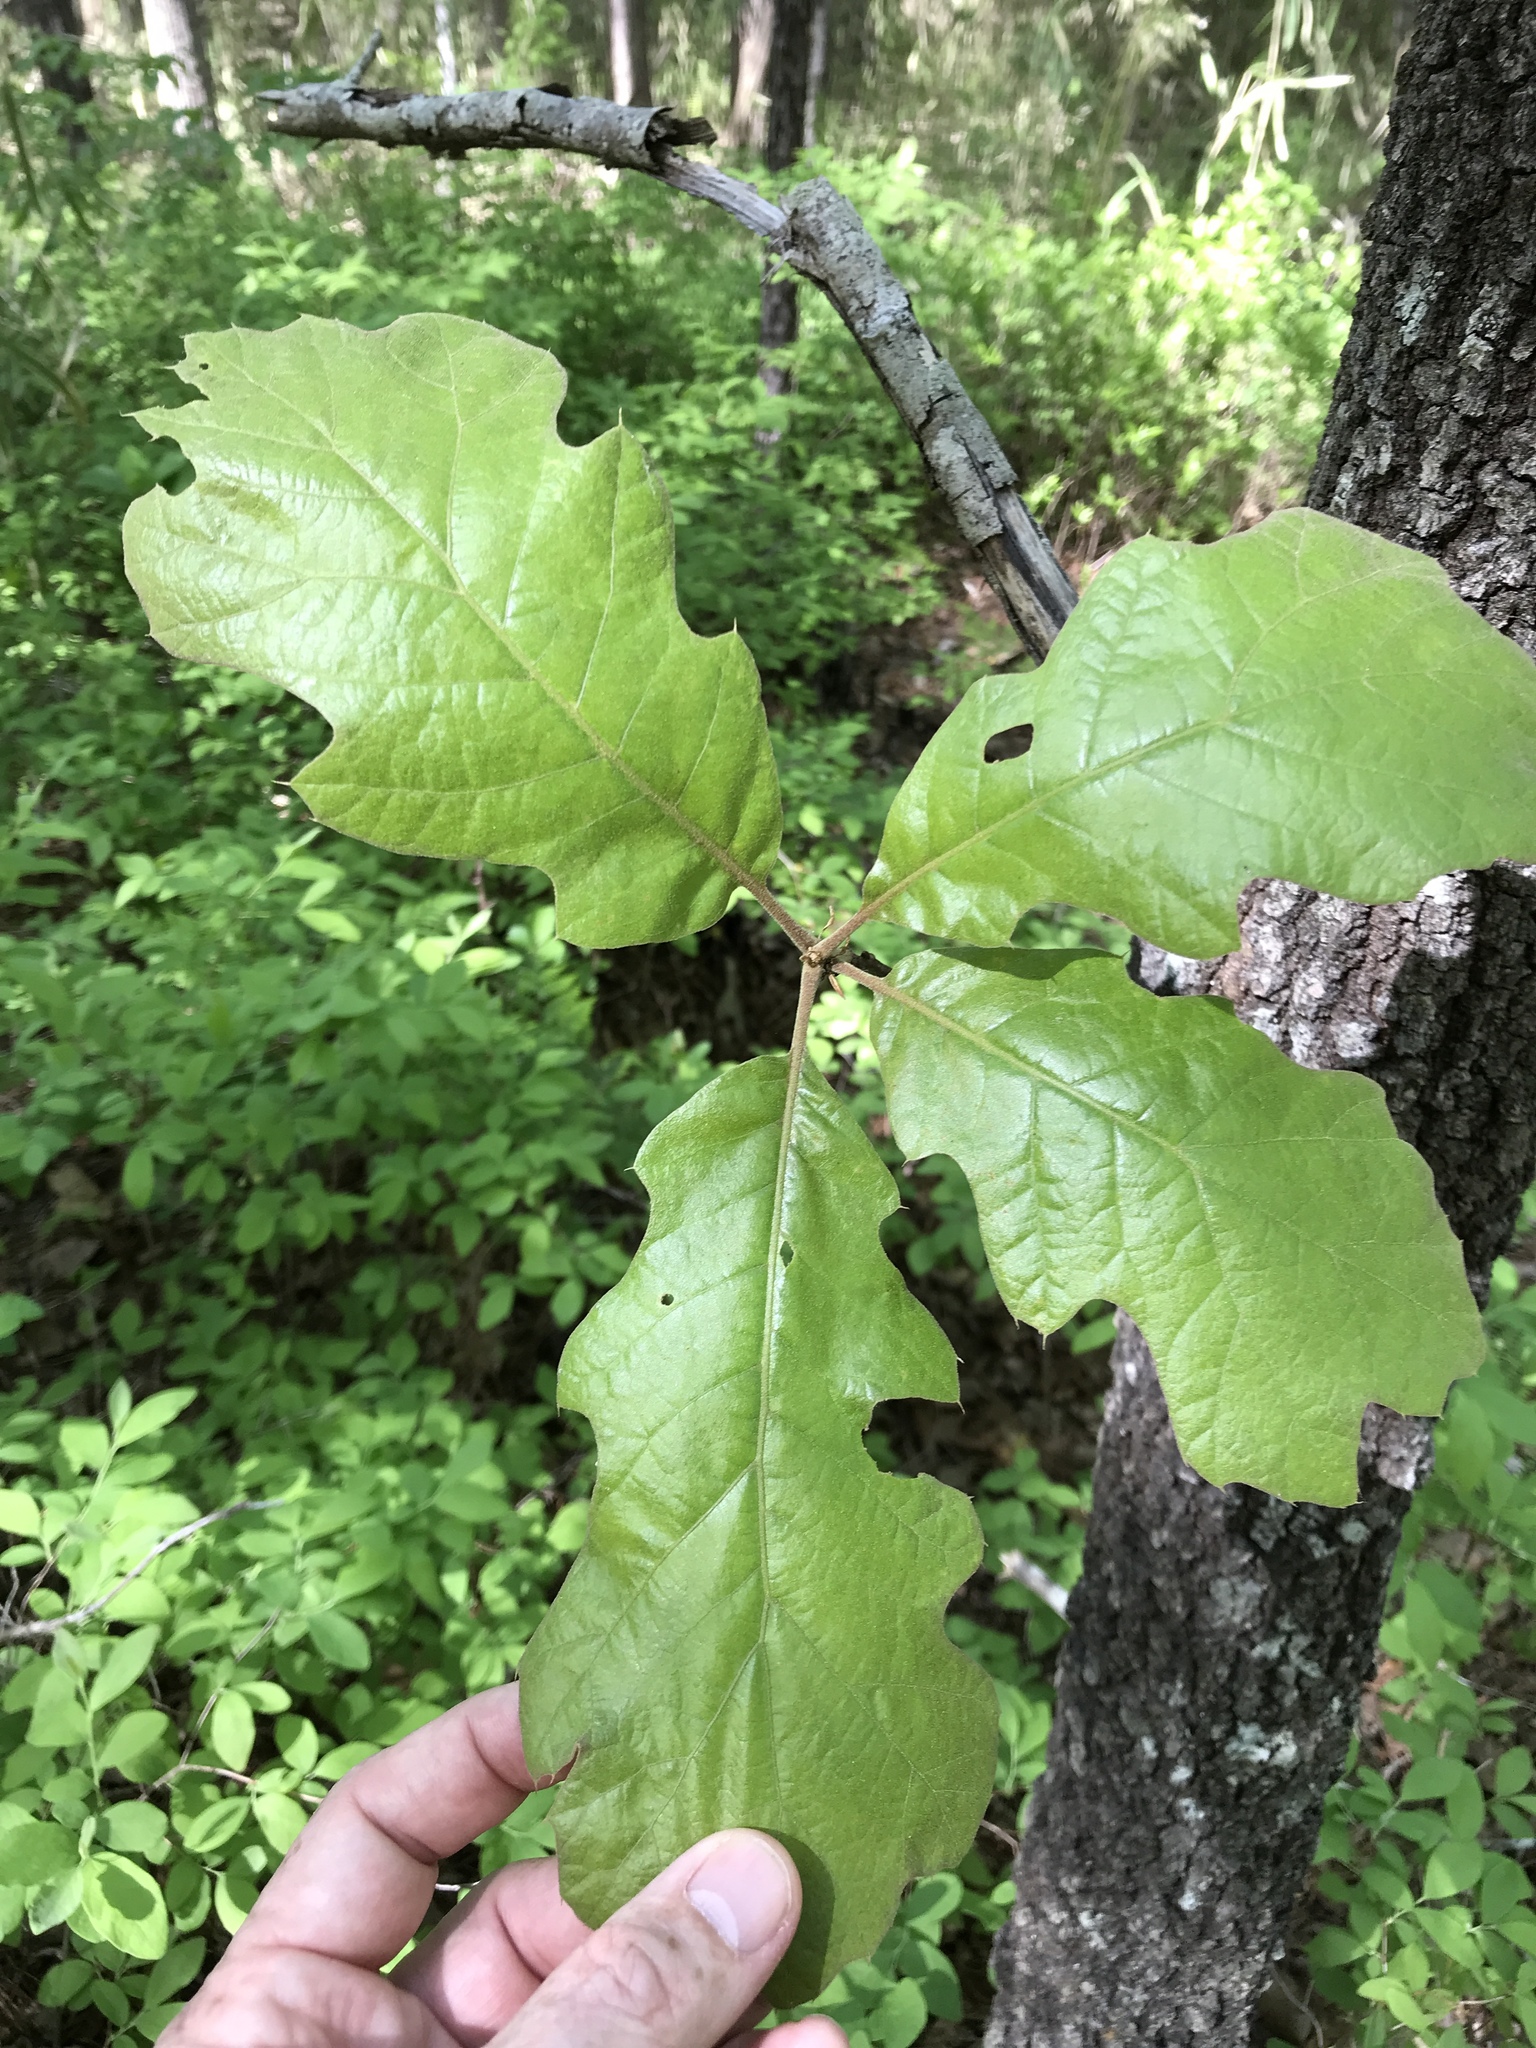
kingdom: Plantae
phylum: Tracheophyta
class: Magnoliopsida
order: Fagales
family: Fagaceae
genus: Quercus
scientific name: Quercus velutina
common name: Black oak
